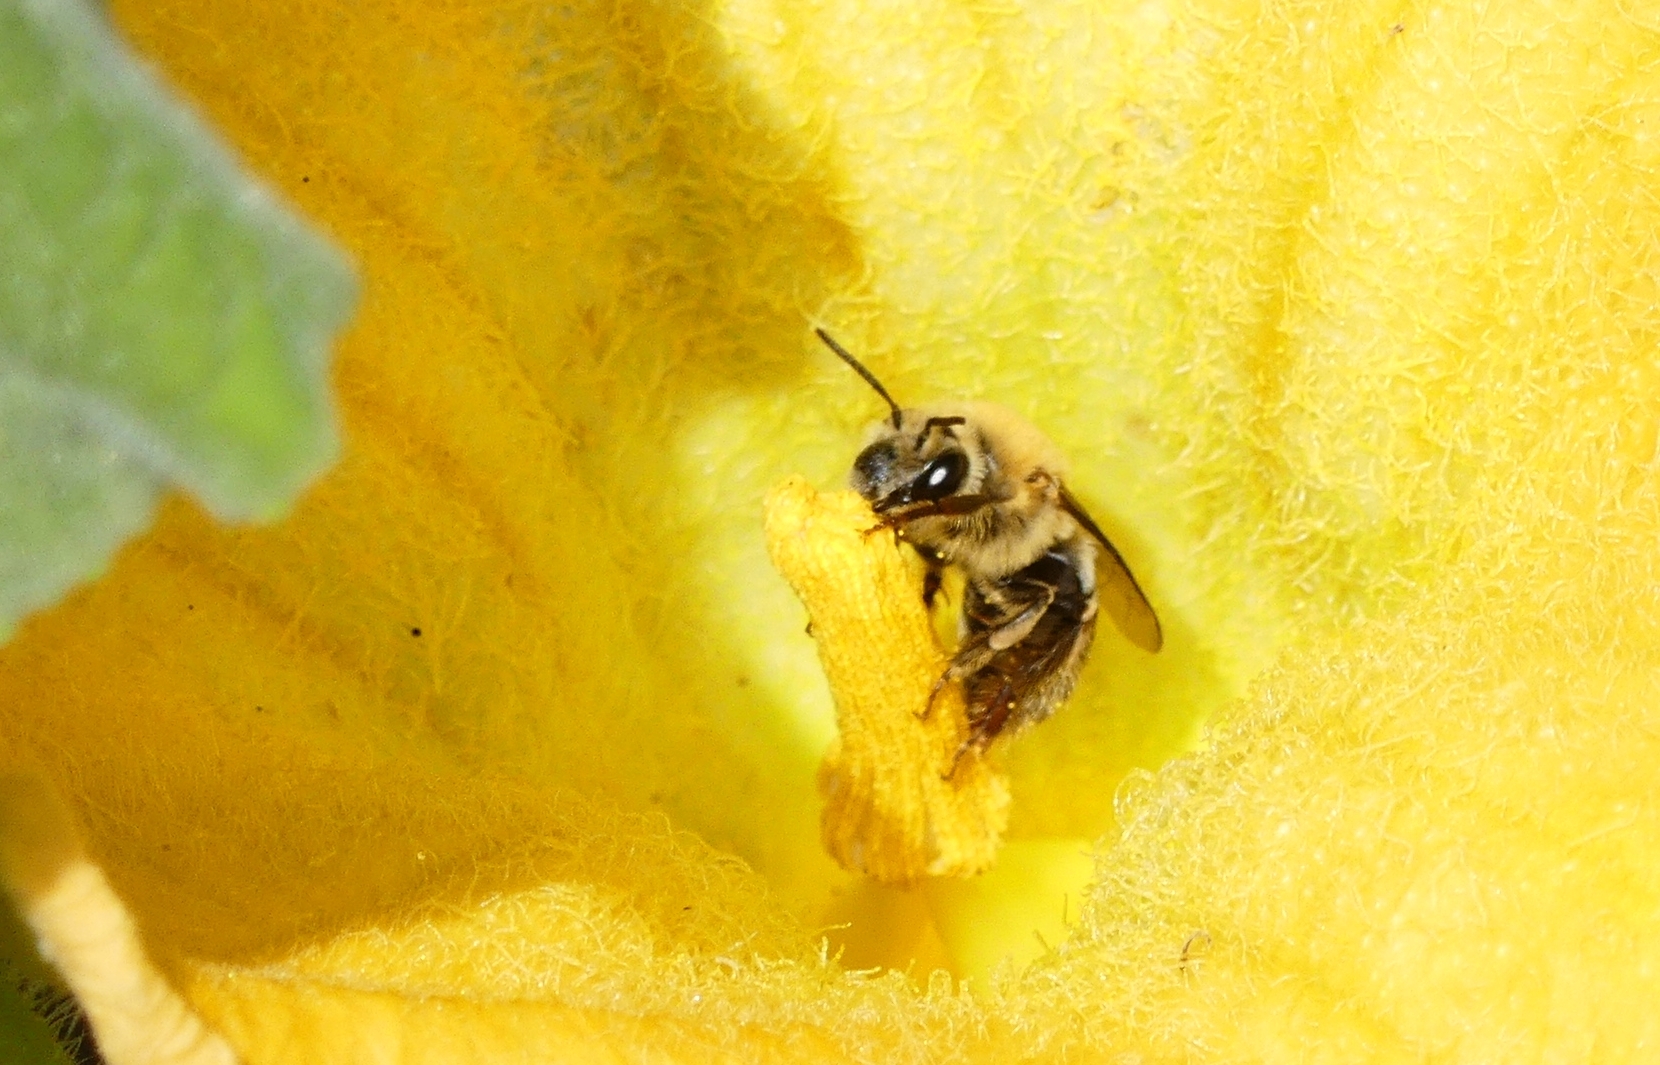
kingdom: Animalia
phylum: Arthropoda
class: Insecta
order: Hymenoptera
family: Apidae
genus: Peponapis
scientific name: Peponapis pruinosa
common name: Pruinose squash bee
